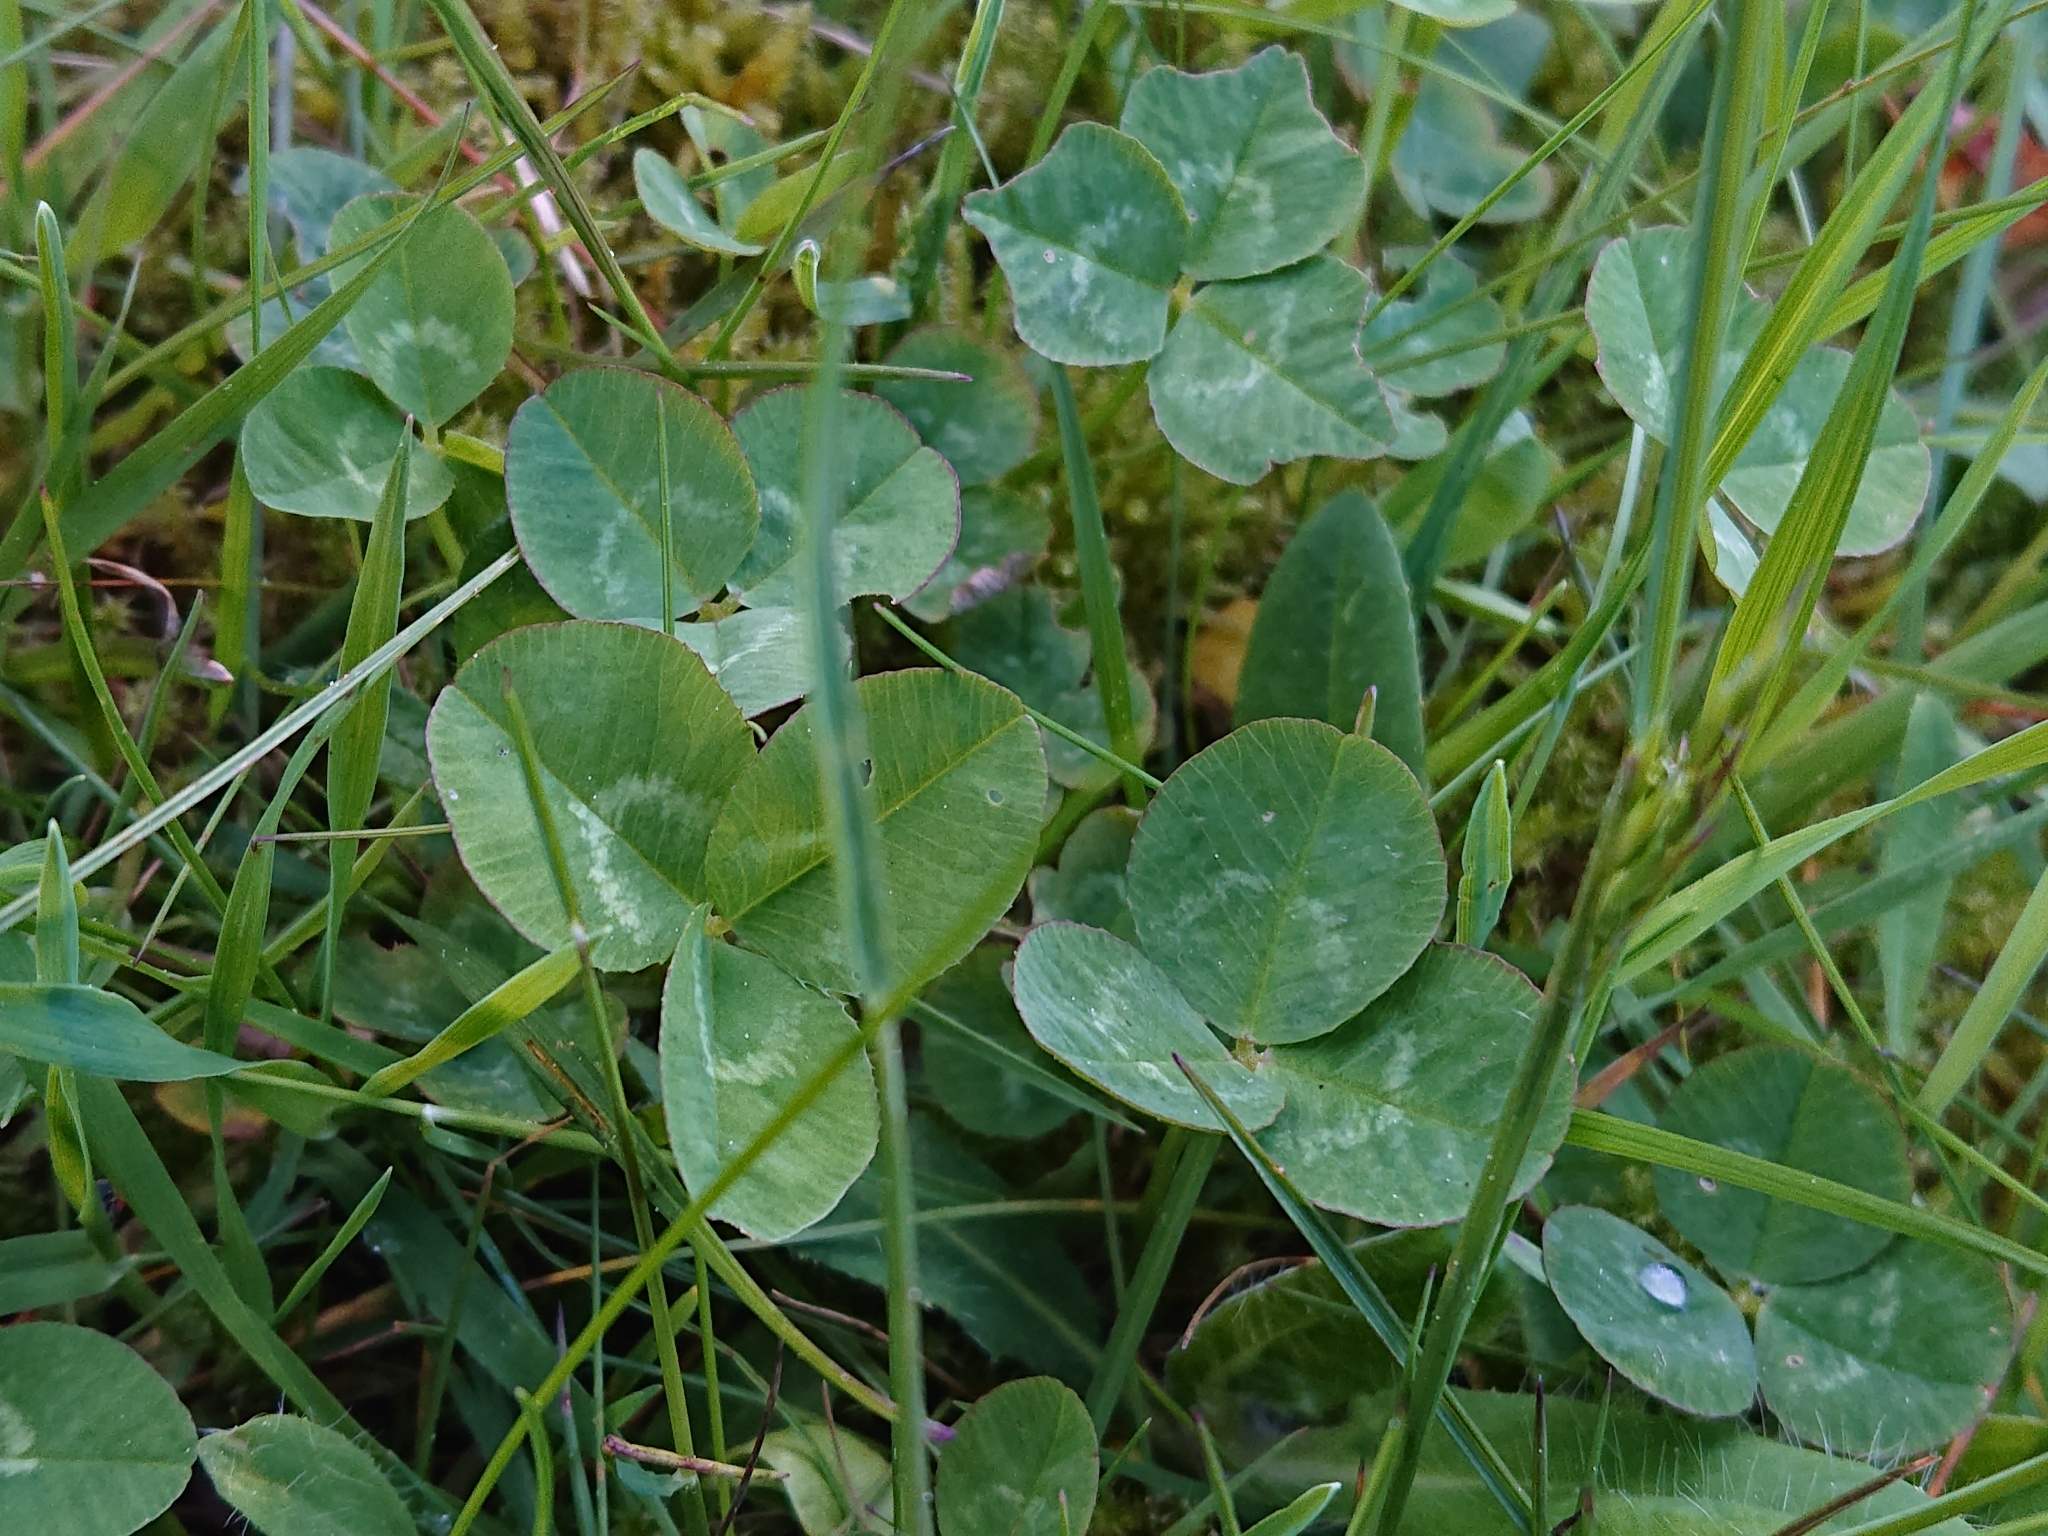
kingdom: Plantae
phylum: Tracheophyta
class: Magnoliopsida
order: Fabales
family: Fabaceae
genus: Trifolium
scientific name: Trifolium repens
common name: White clover
